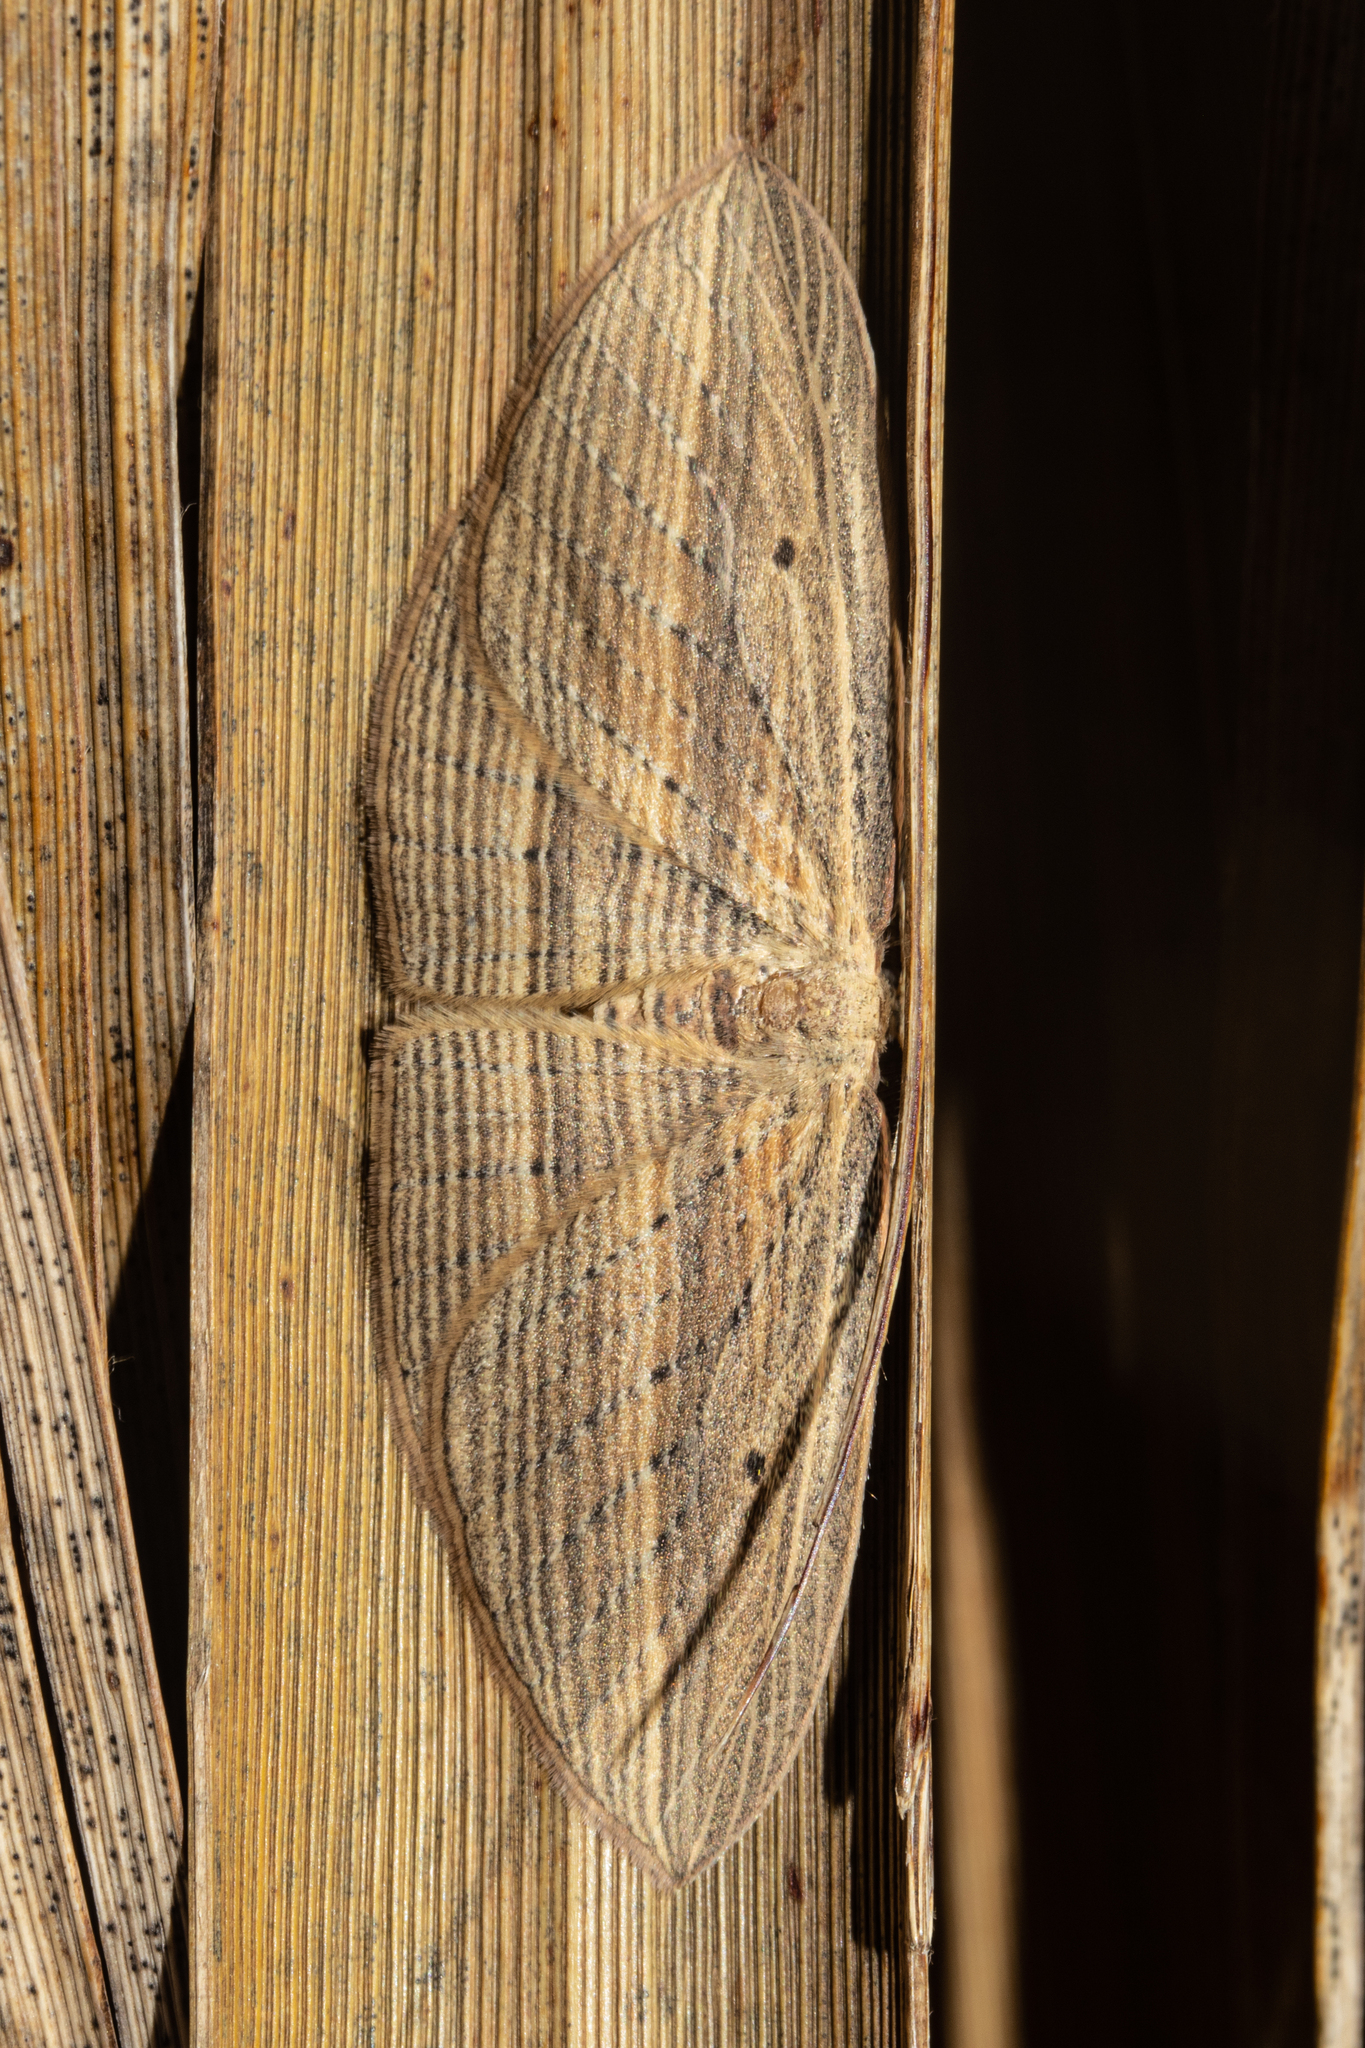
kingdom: Animalia
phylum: Arthropoda
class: Insecta
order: Lepidoptera
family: Geometridae
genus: Epiphryne
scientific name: Epiphryne verriculata
